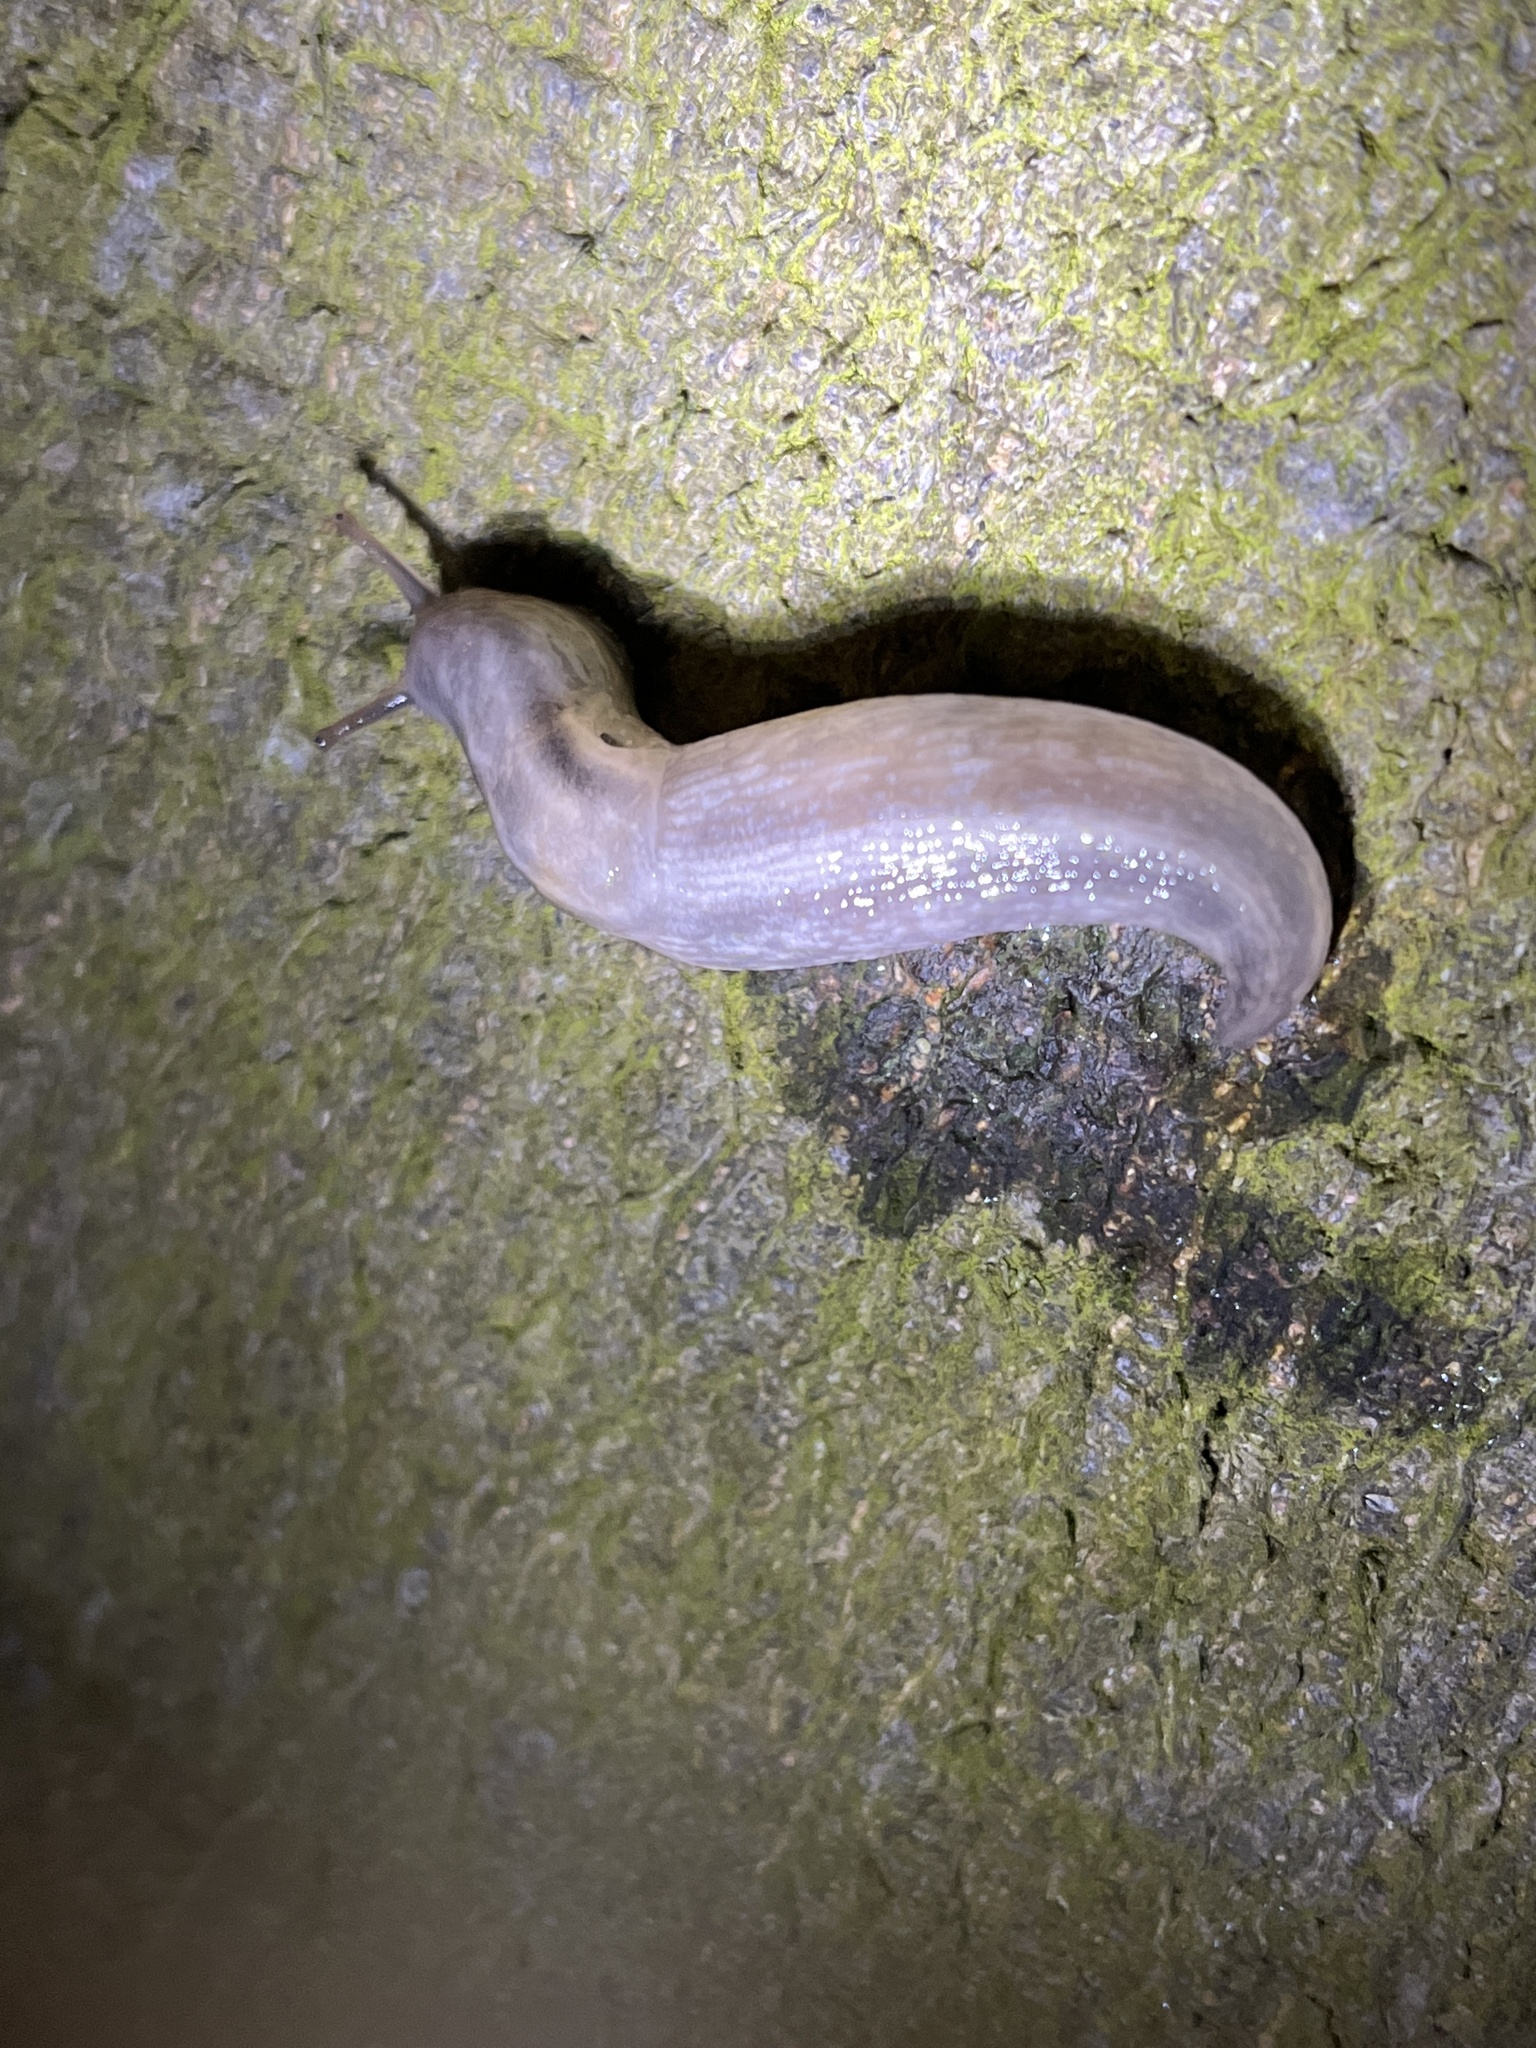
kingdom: Animalia
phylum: Mollusca
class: Gastropoda
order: Stylommatophora
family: Limacidae
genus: Lehmannia
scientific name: Lehmannia marginata
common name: Tree slug
